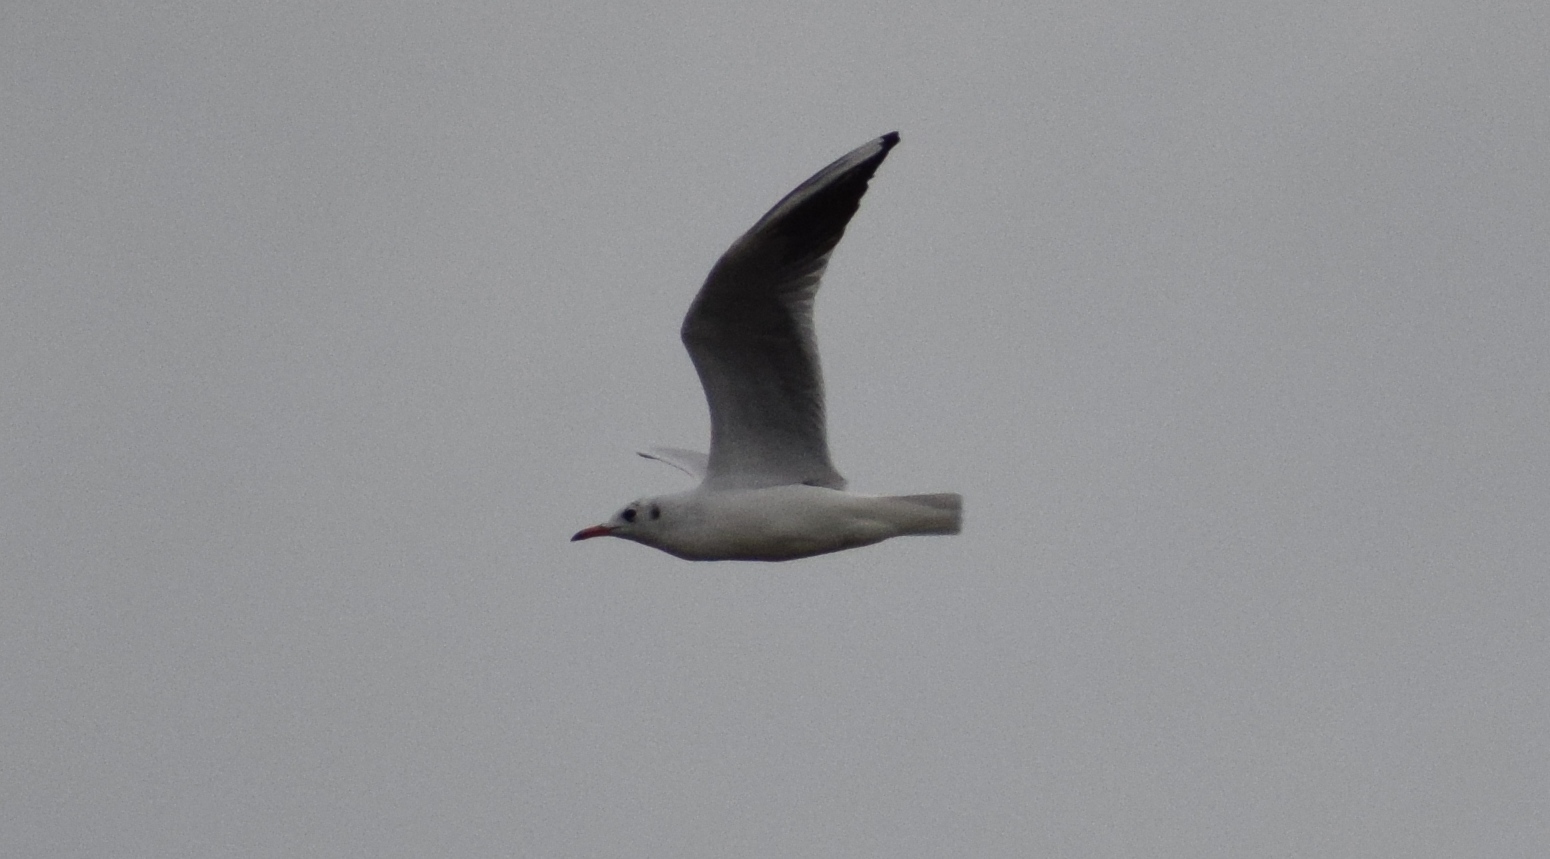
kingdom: Animalia
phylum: Chordata
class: Aves
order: Charadriiformes
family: Laridae
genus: Chroicocephalus
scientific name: Chroicocephalus ridibundus
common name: Black-headed gull
